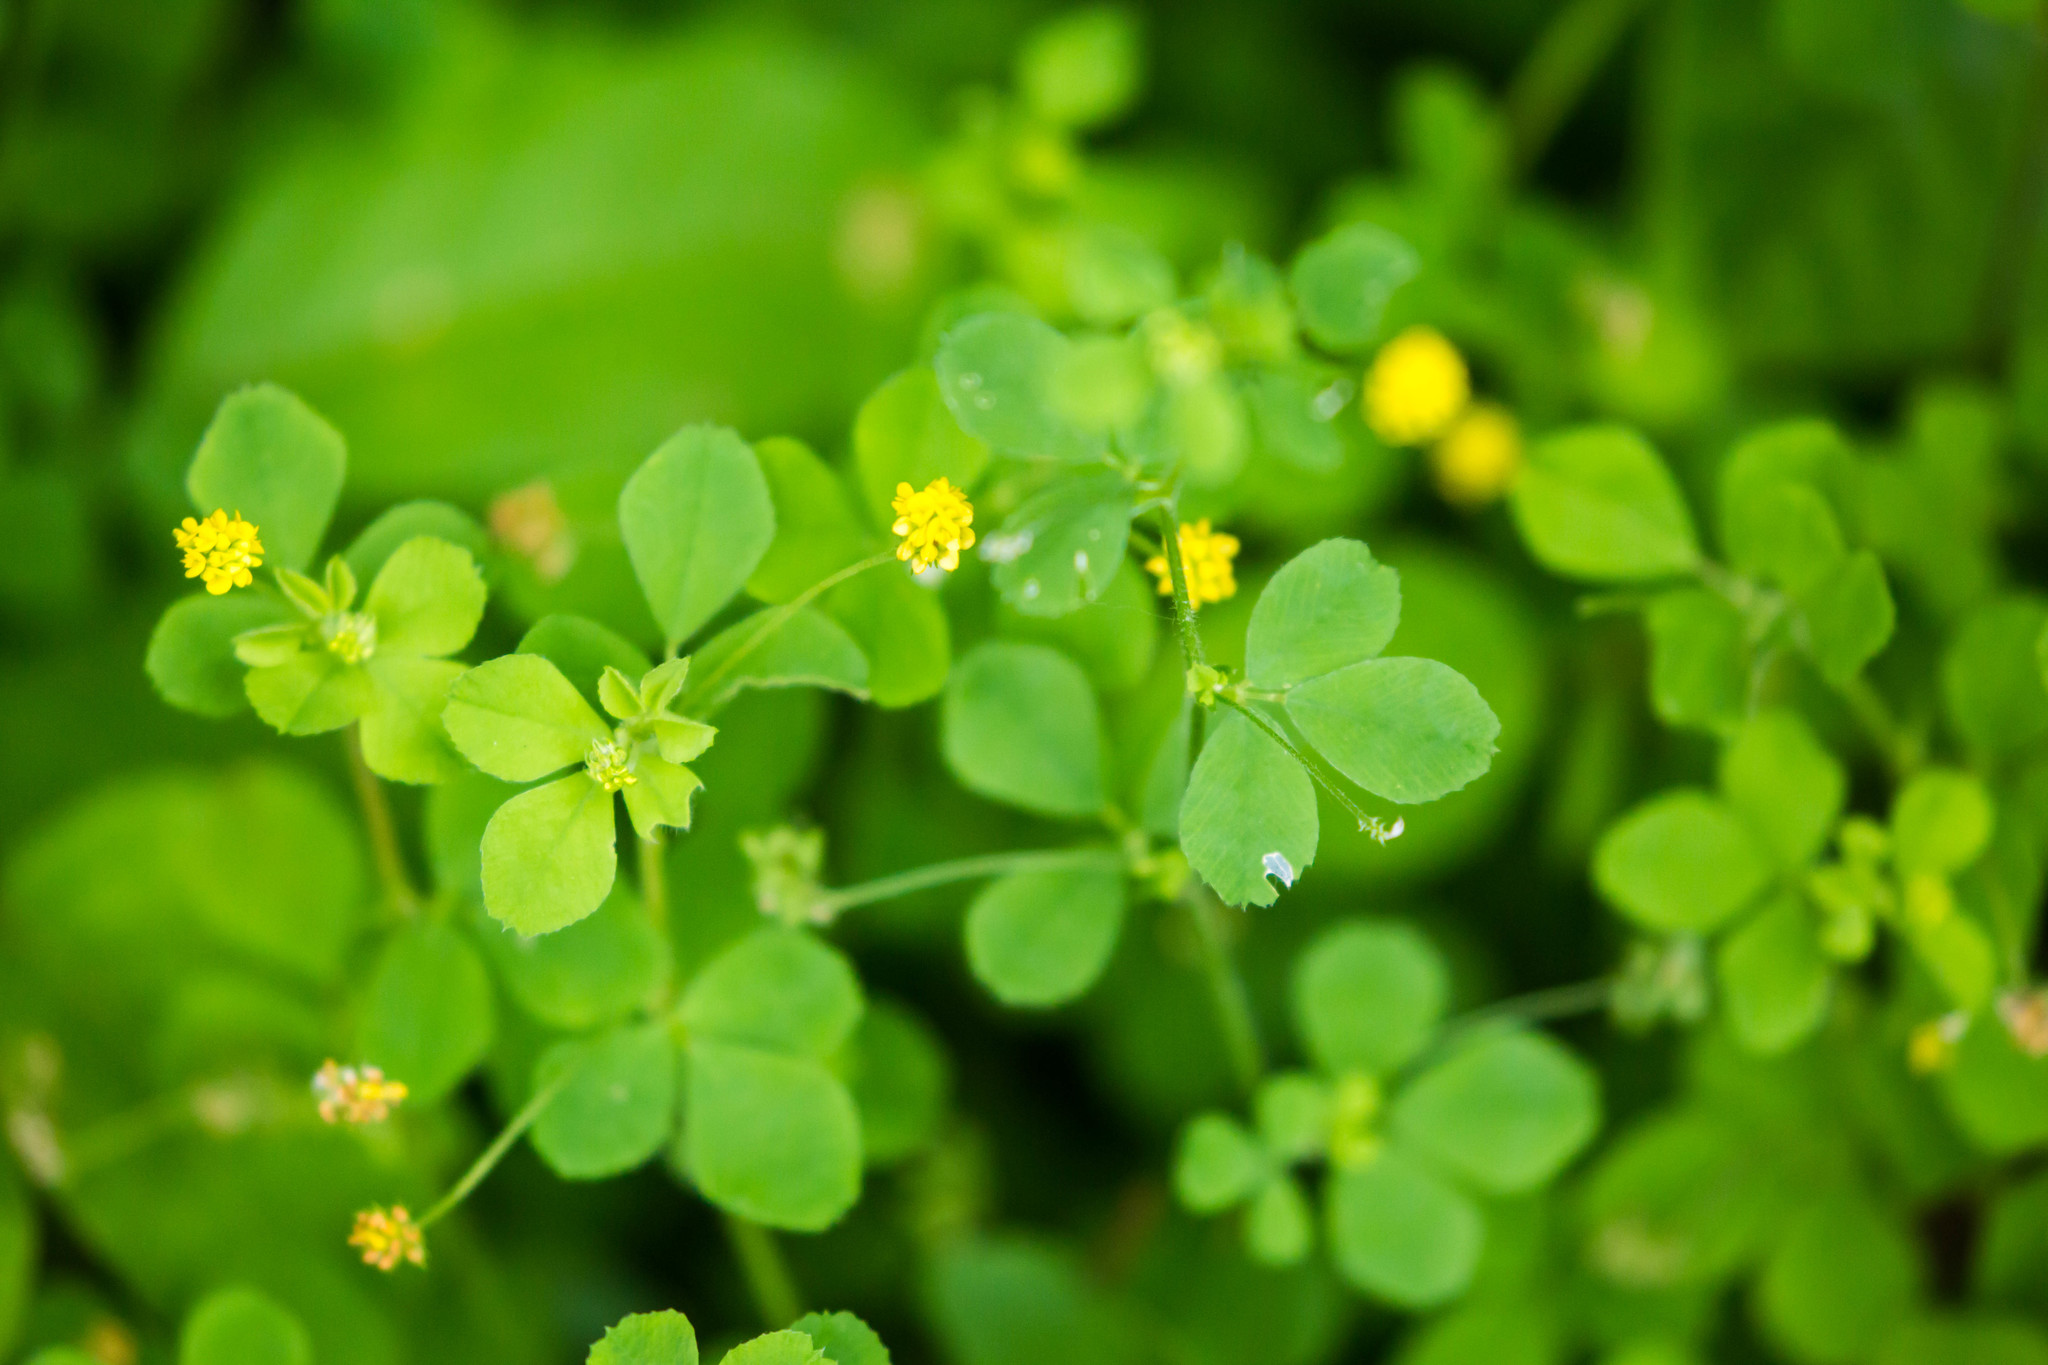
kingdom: Plantae
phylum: Tracheophyta
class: Magnoliopsida
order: Fabales
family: Fabaceae
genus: Medicago
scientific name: Medicago lupulina
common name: Black medick
